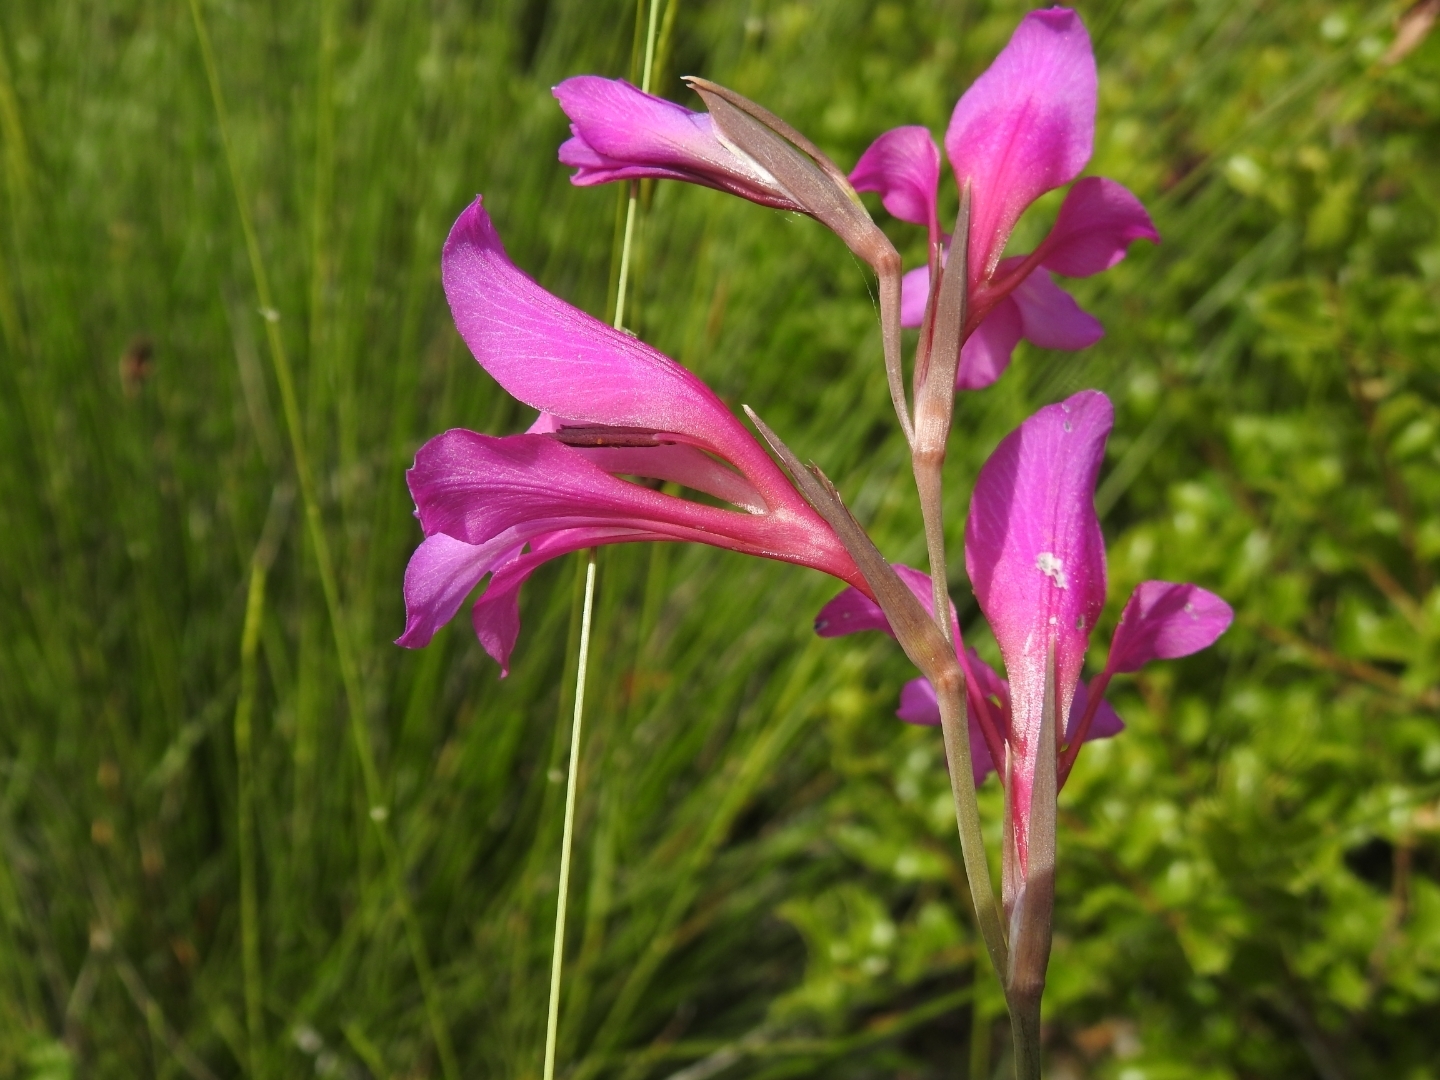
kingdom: Plantae
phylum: Tracheophyta
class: Liliopsida
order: Asparagales
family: Iridaceae
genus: Gladiolus
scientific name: Gladiolus dubius
